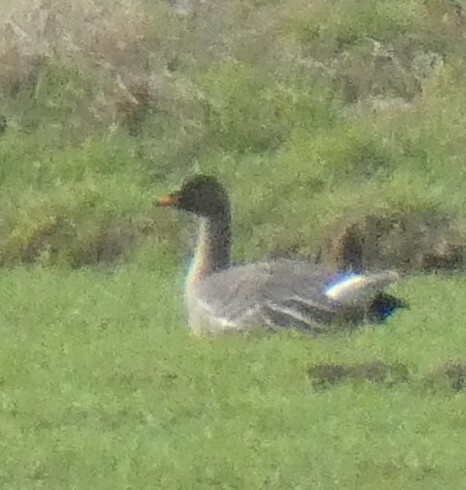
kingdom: Animalia
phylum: Chordata
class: Aves
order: Anseriformes
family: Anatidae
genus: Anser
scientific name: Anser serrirostris
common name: Tundra bean goose
